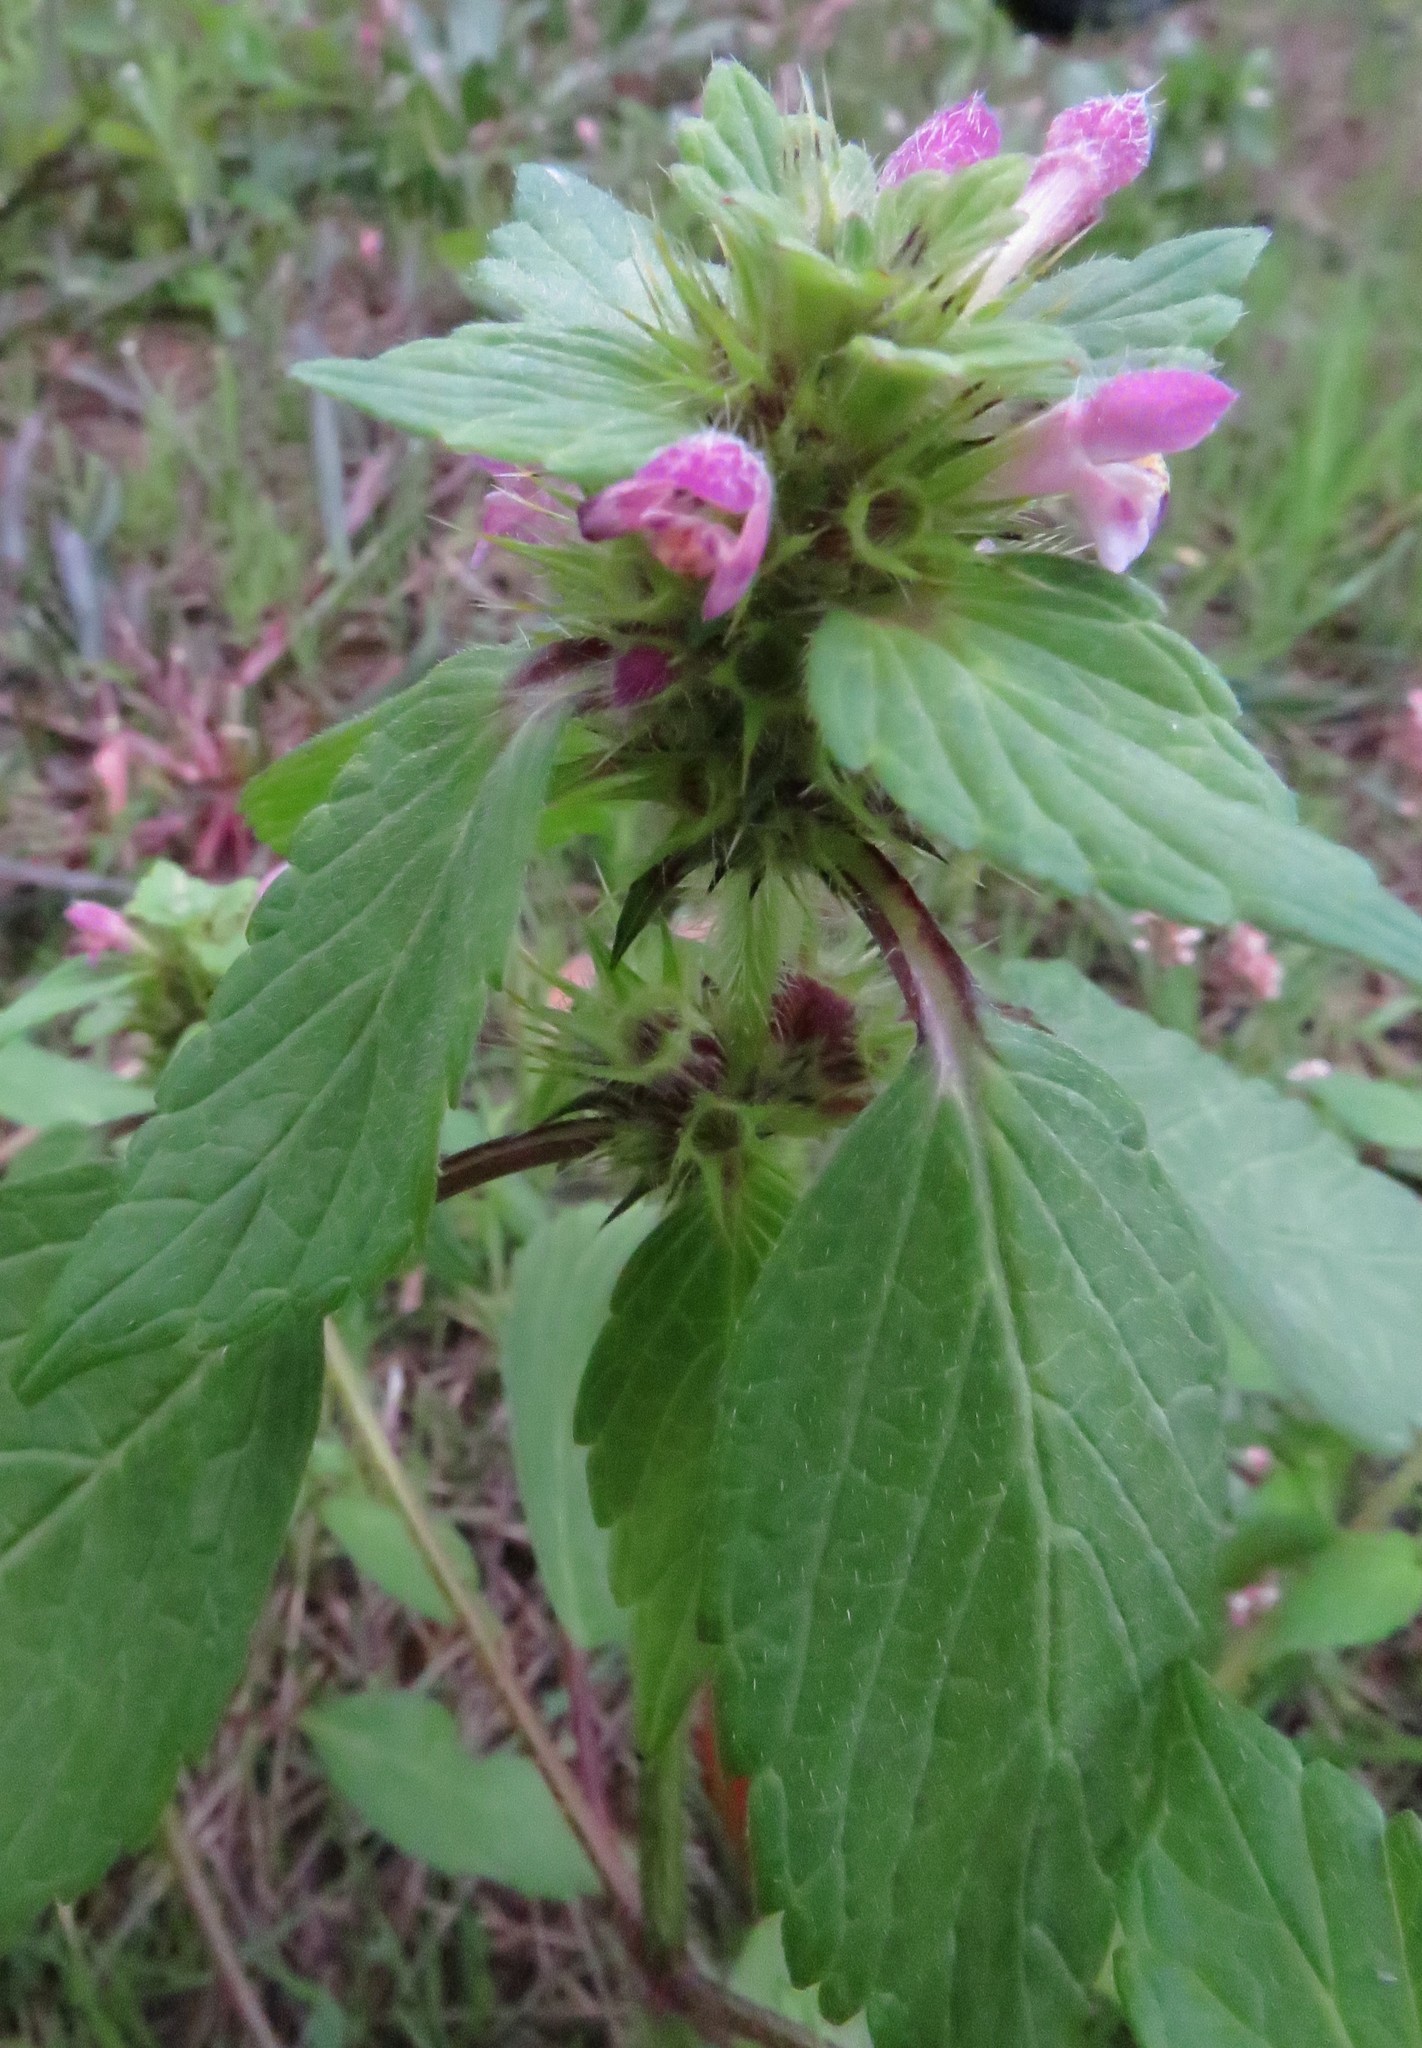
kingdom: Plantae
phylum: Tracheophyta
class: Magnoliopsida
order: Lamiales
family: Lamiaceae
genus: Galeopsis
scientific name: Galeopsis tetrahit
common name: Common hemp-nettle
